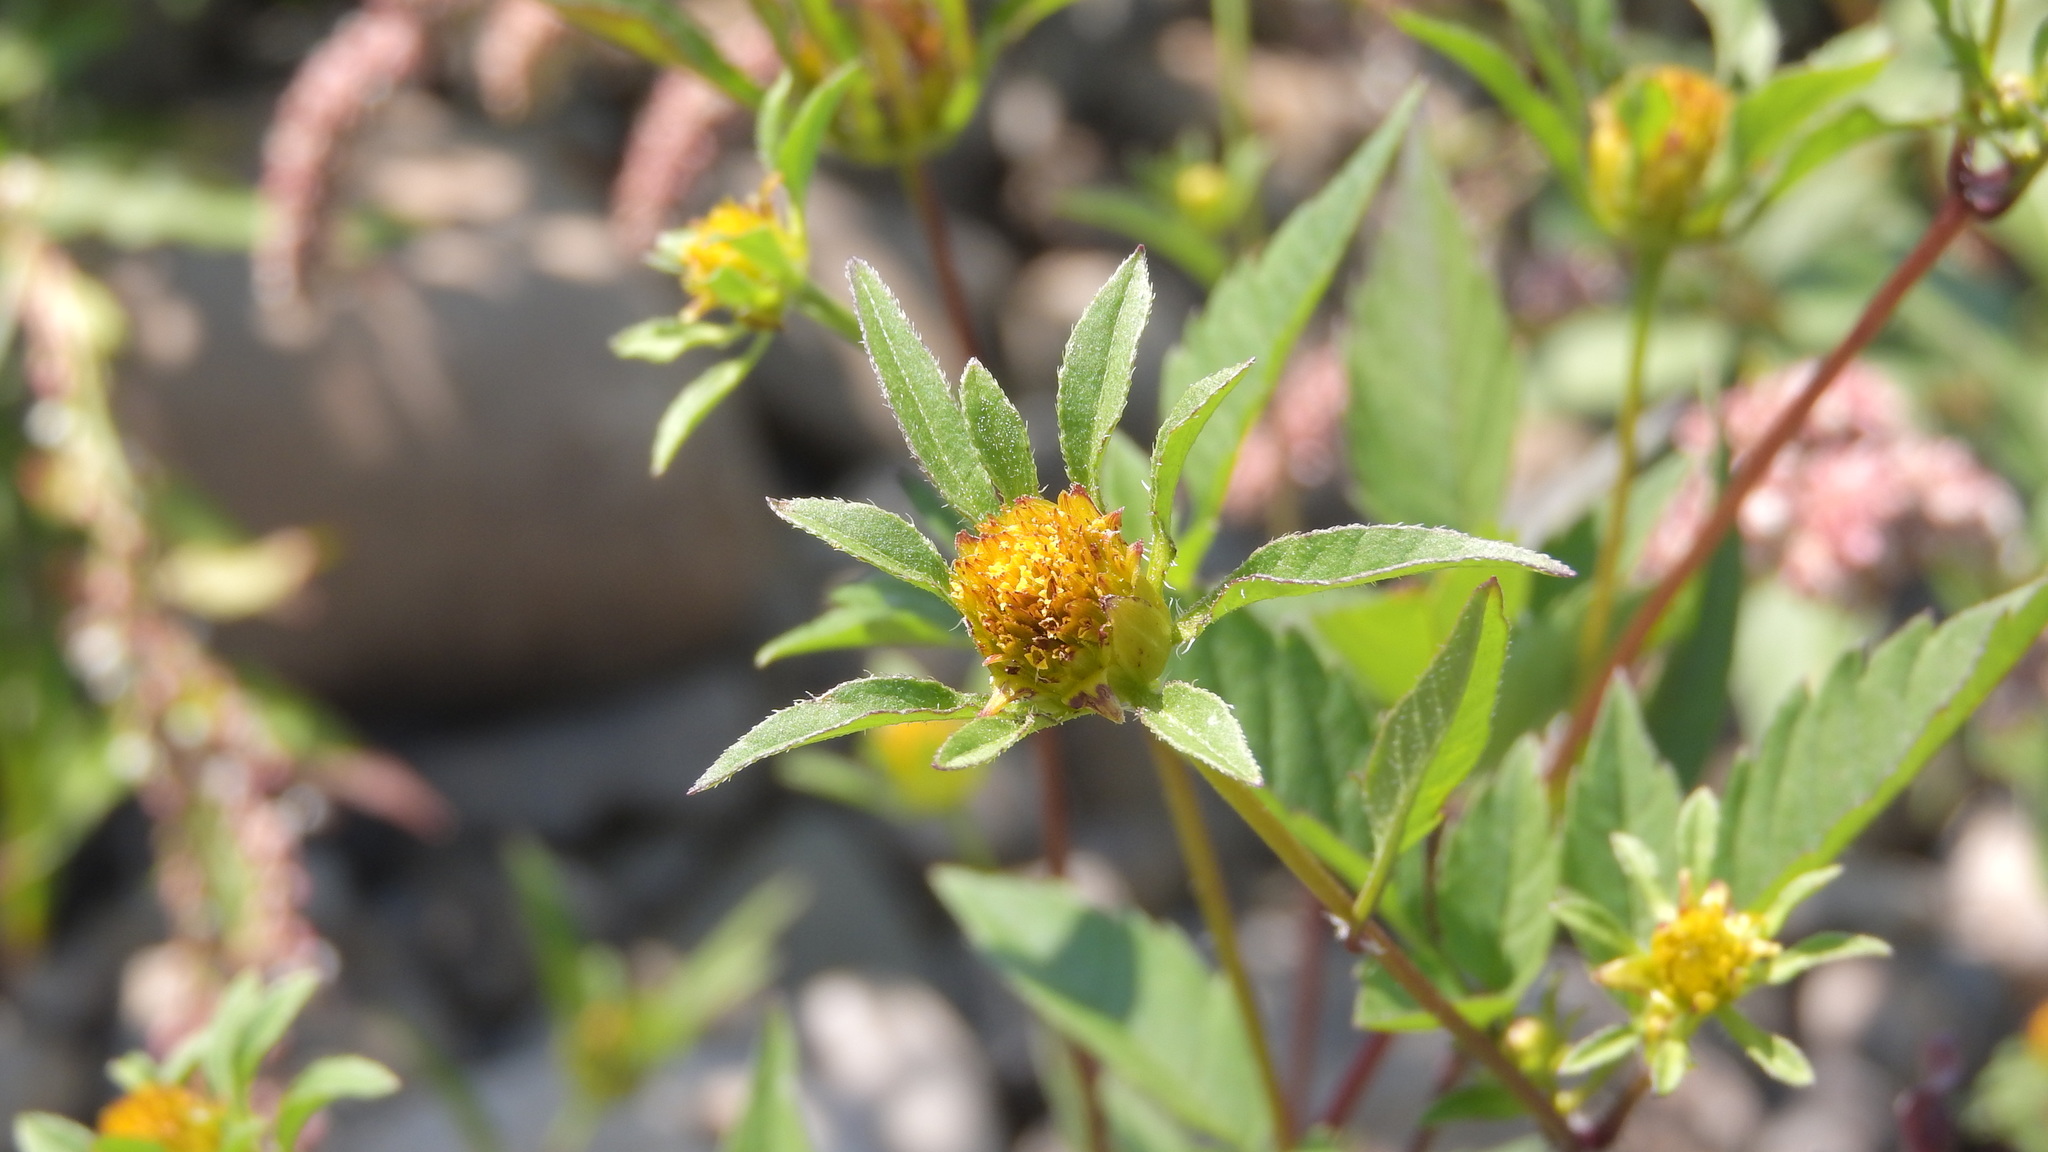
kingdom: Plantae
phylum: Tracheophyta
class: Magnoliopsida
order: Asterales
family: Asteraceae
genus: Bidens
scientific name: Bidens frondosa
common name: Beggarticks
